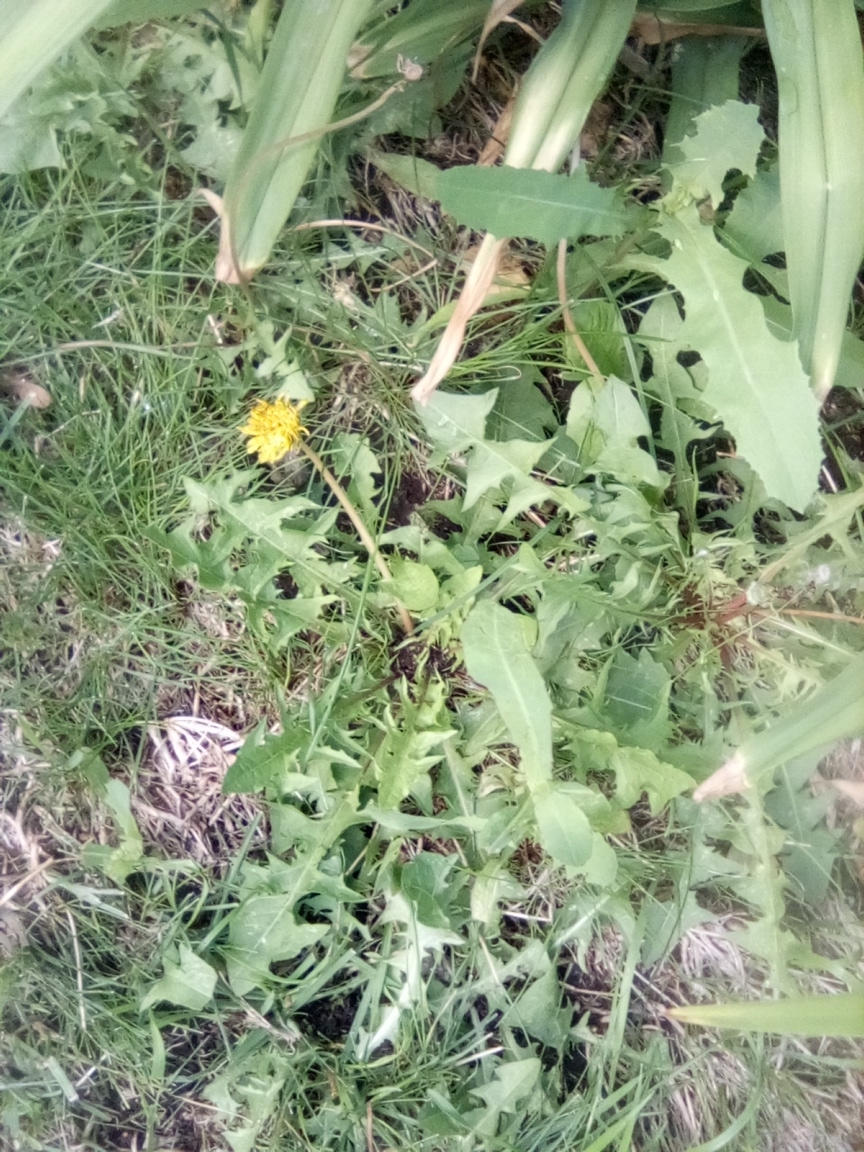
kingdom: Plantae
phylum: Tracheophyta
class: Magnoliopsida
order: Asterales
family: Asteraceae
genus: Taraxacum
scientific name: Taraxacum officinale
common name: Common dandelion
